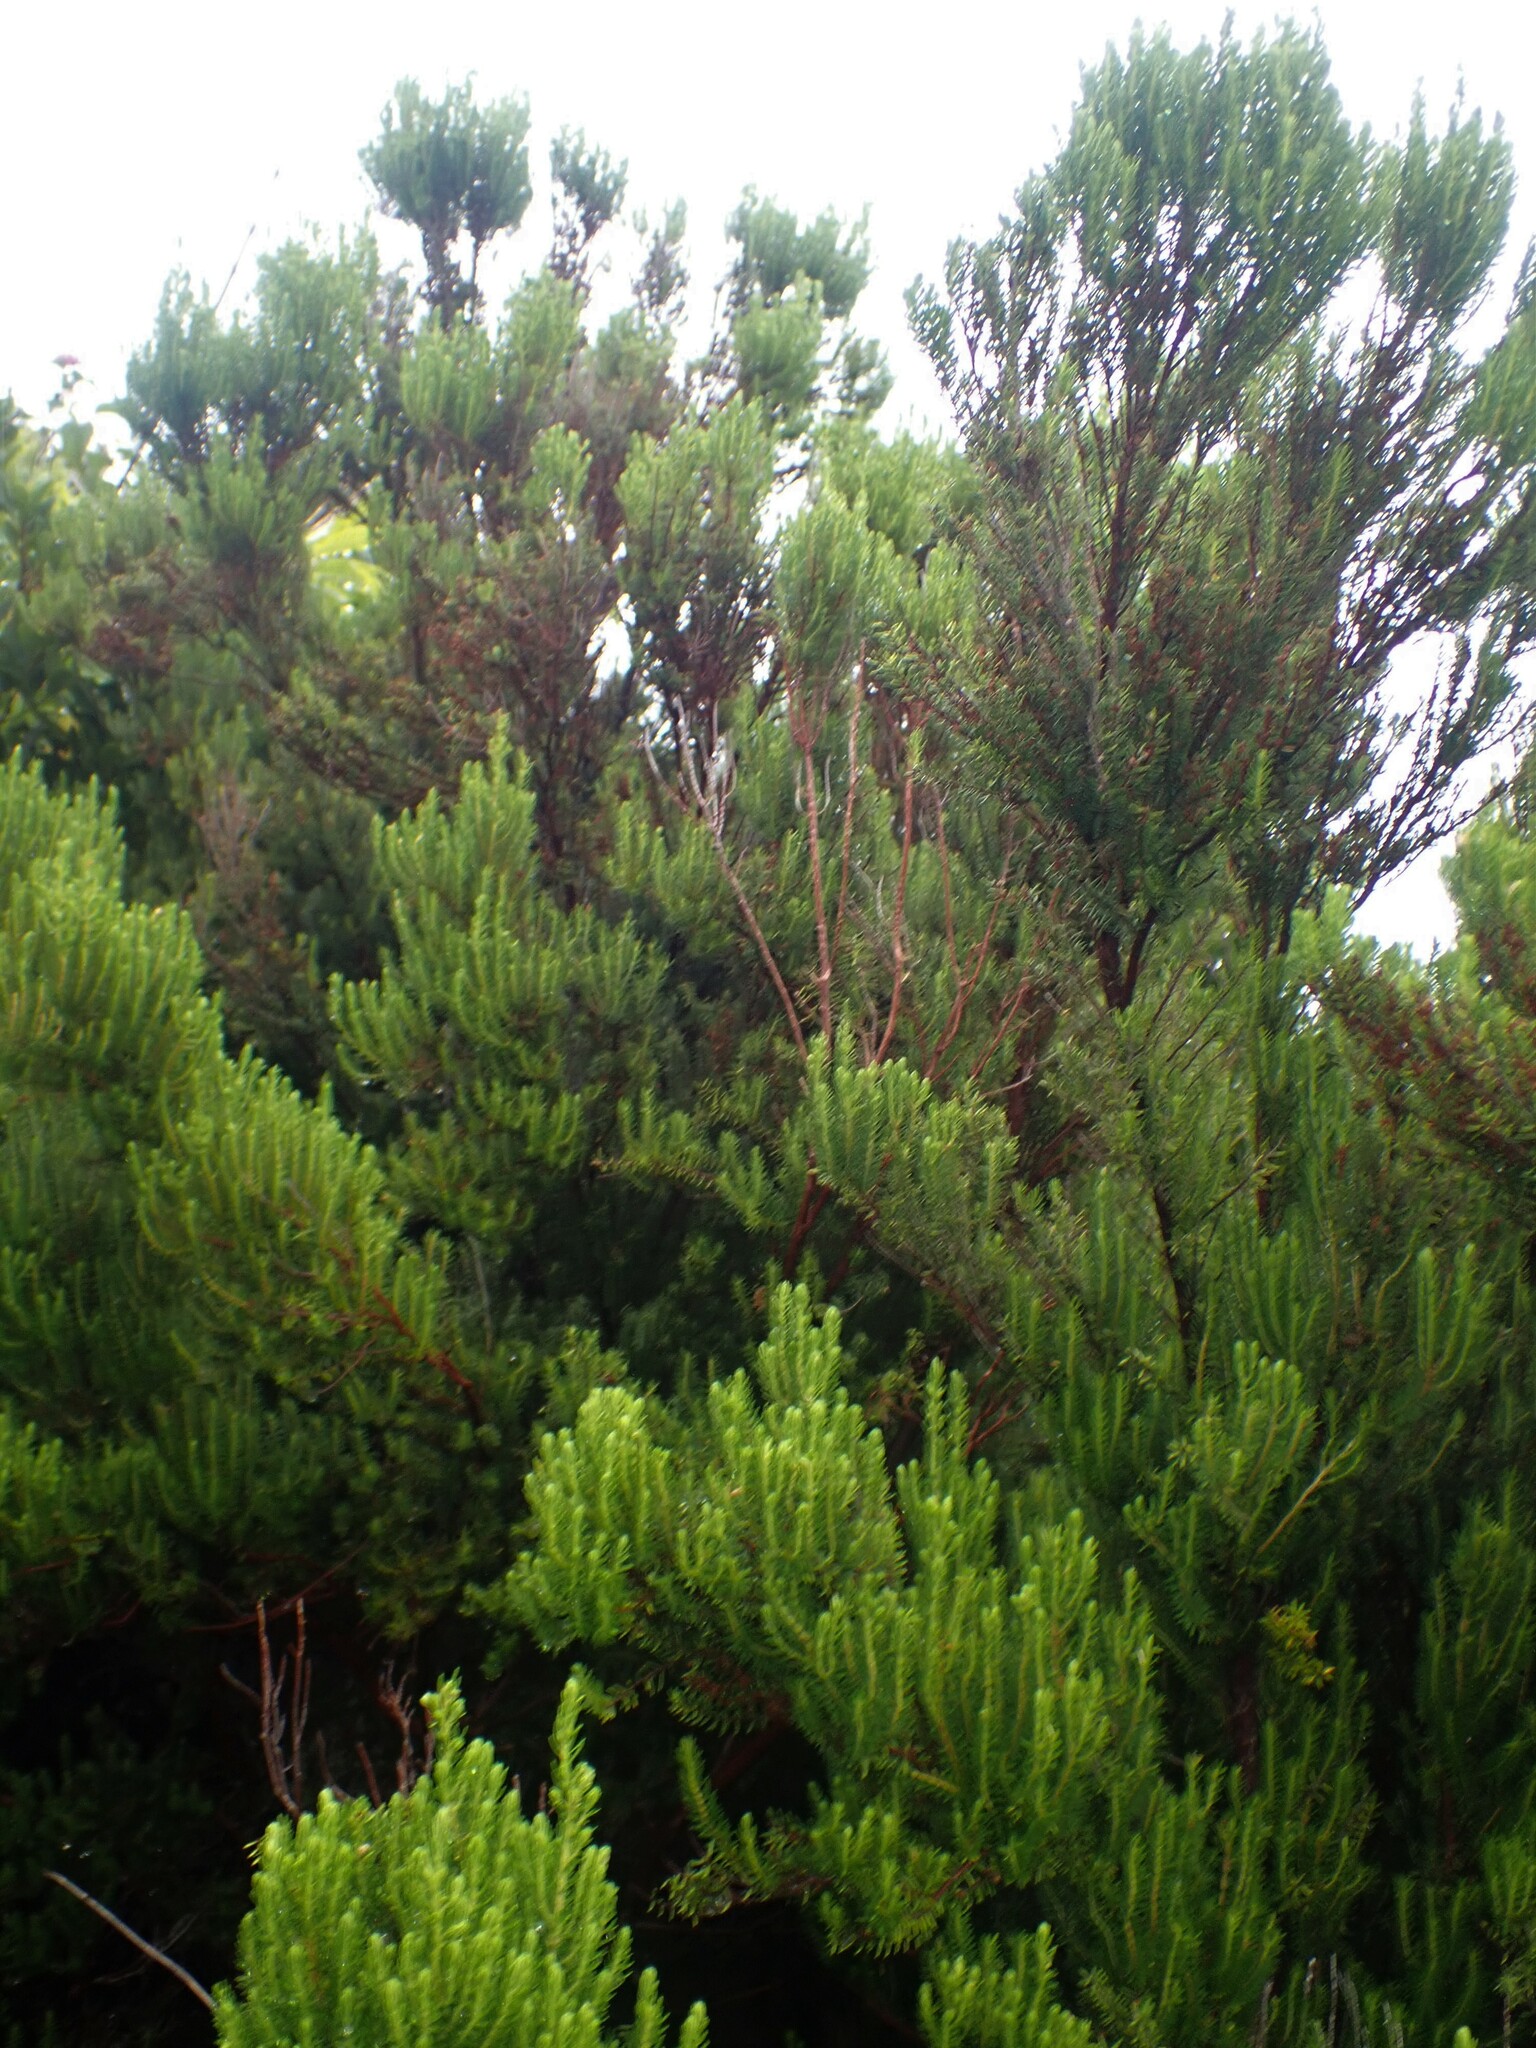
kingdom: Plantae
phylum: Tracheophyta
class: Magnoliopsida
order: Ericales
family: Ericaceae
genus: Erica
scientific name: Erica azorica
